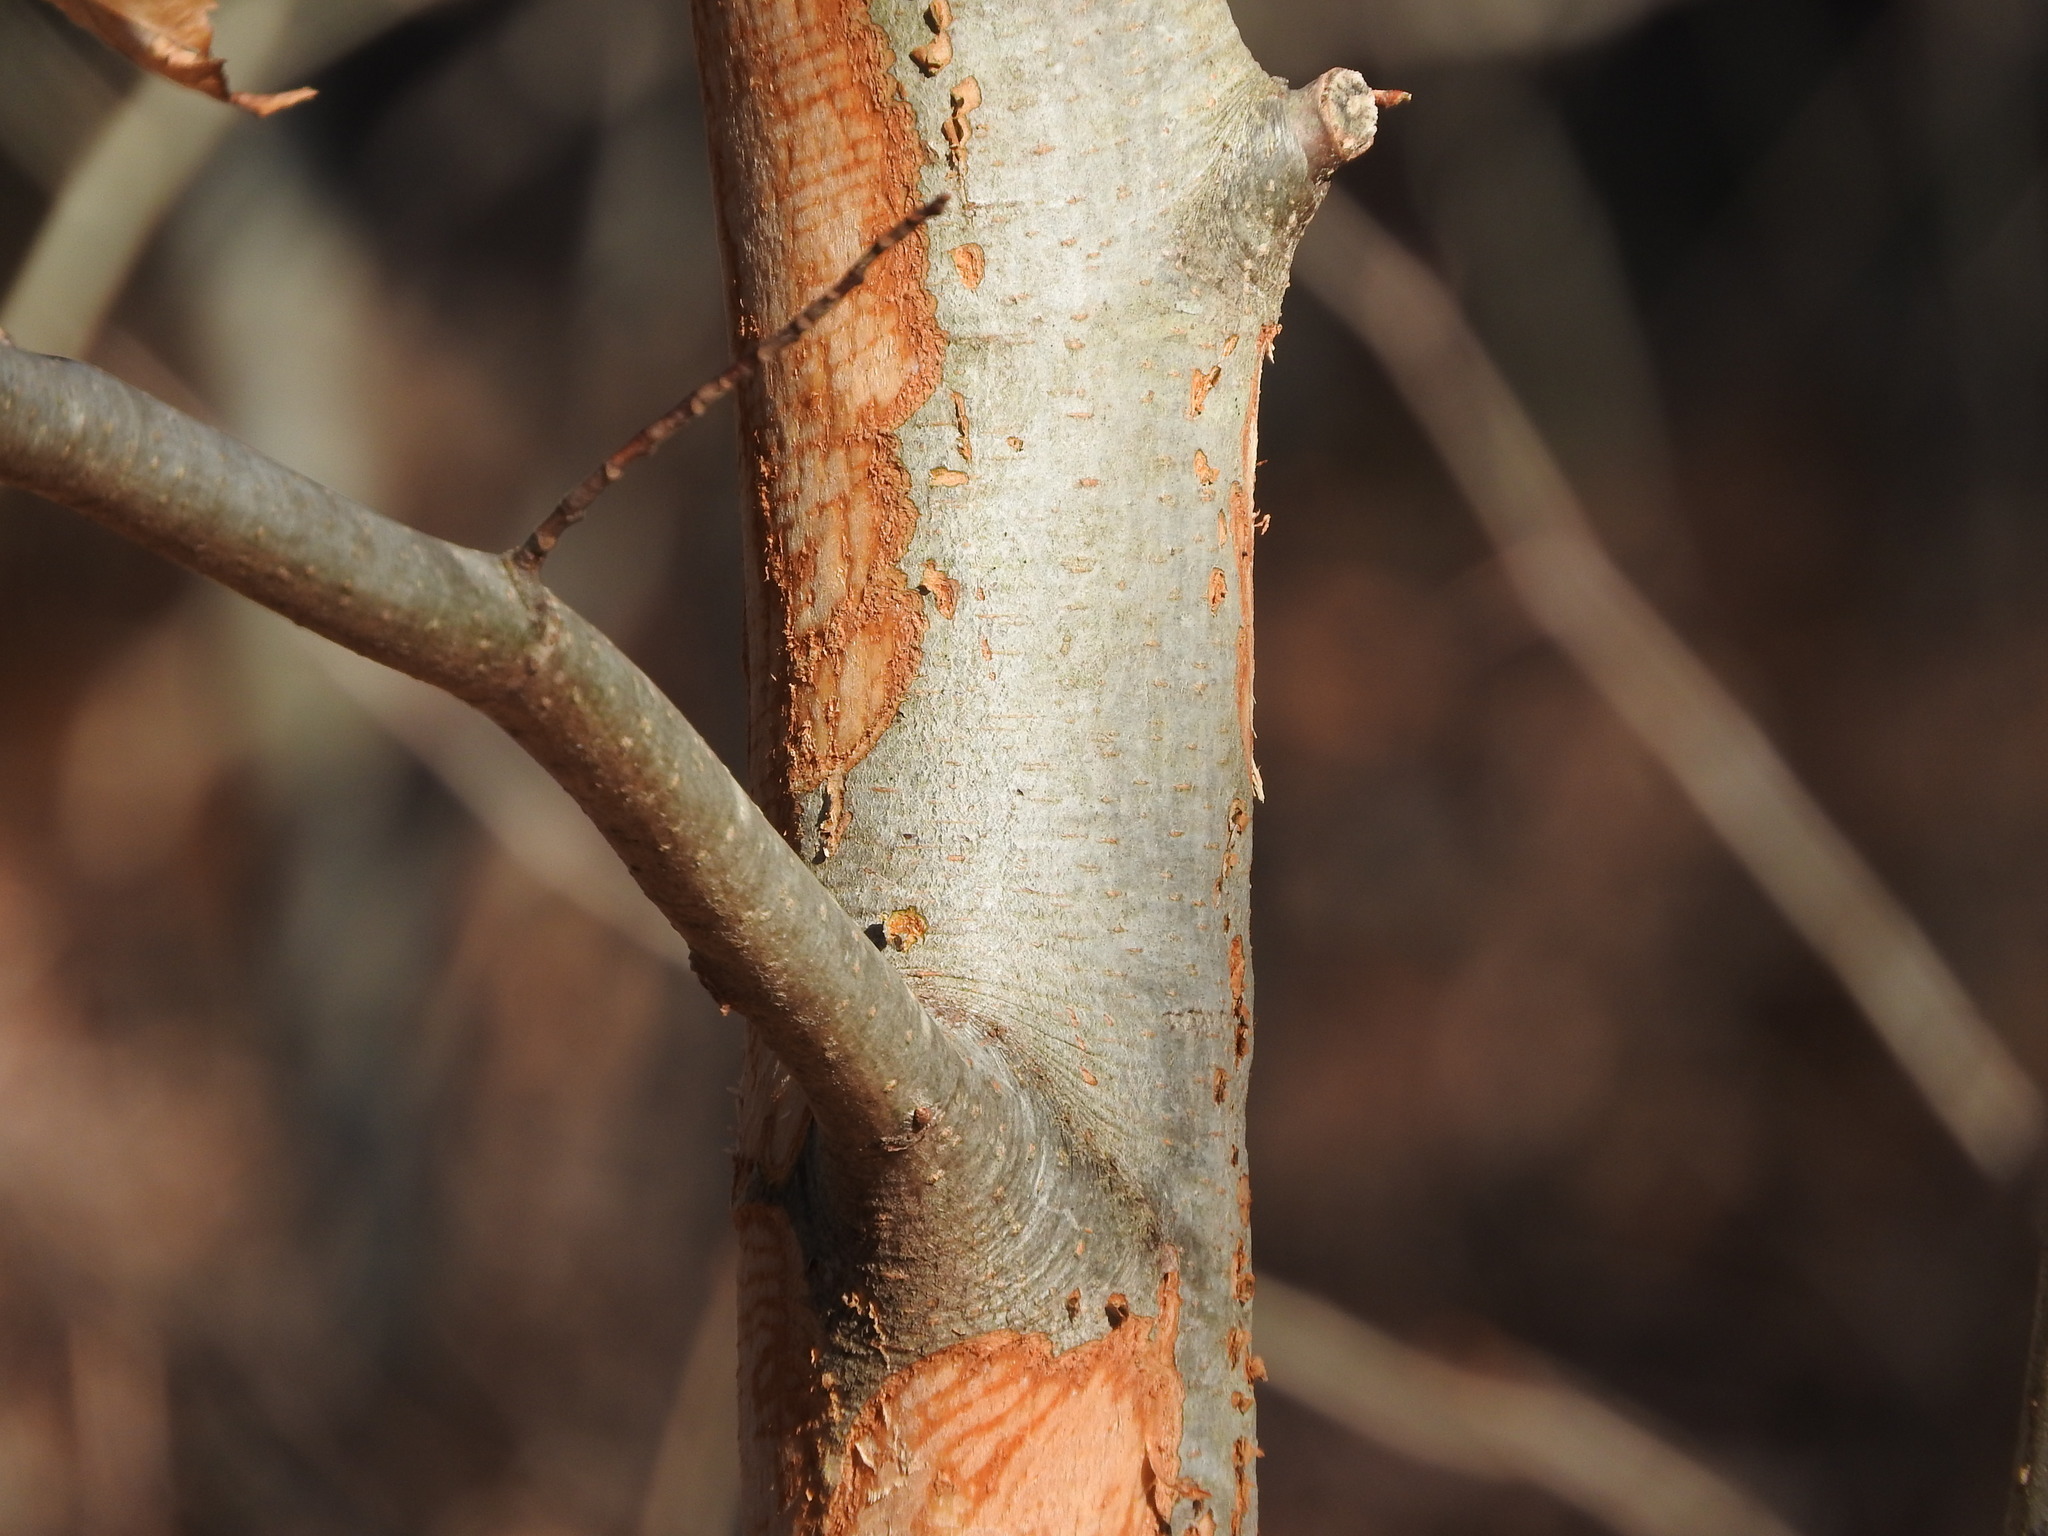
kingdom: Plantae
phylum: Tracheophyta
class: Magnoliopsida
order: Fagales
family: Fagaceae
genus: Fagus
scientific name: Fagus grandifolia
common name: American beech
